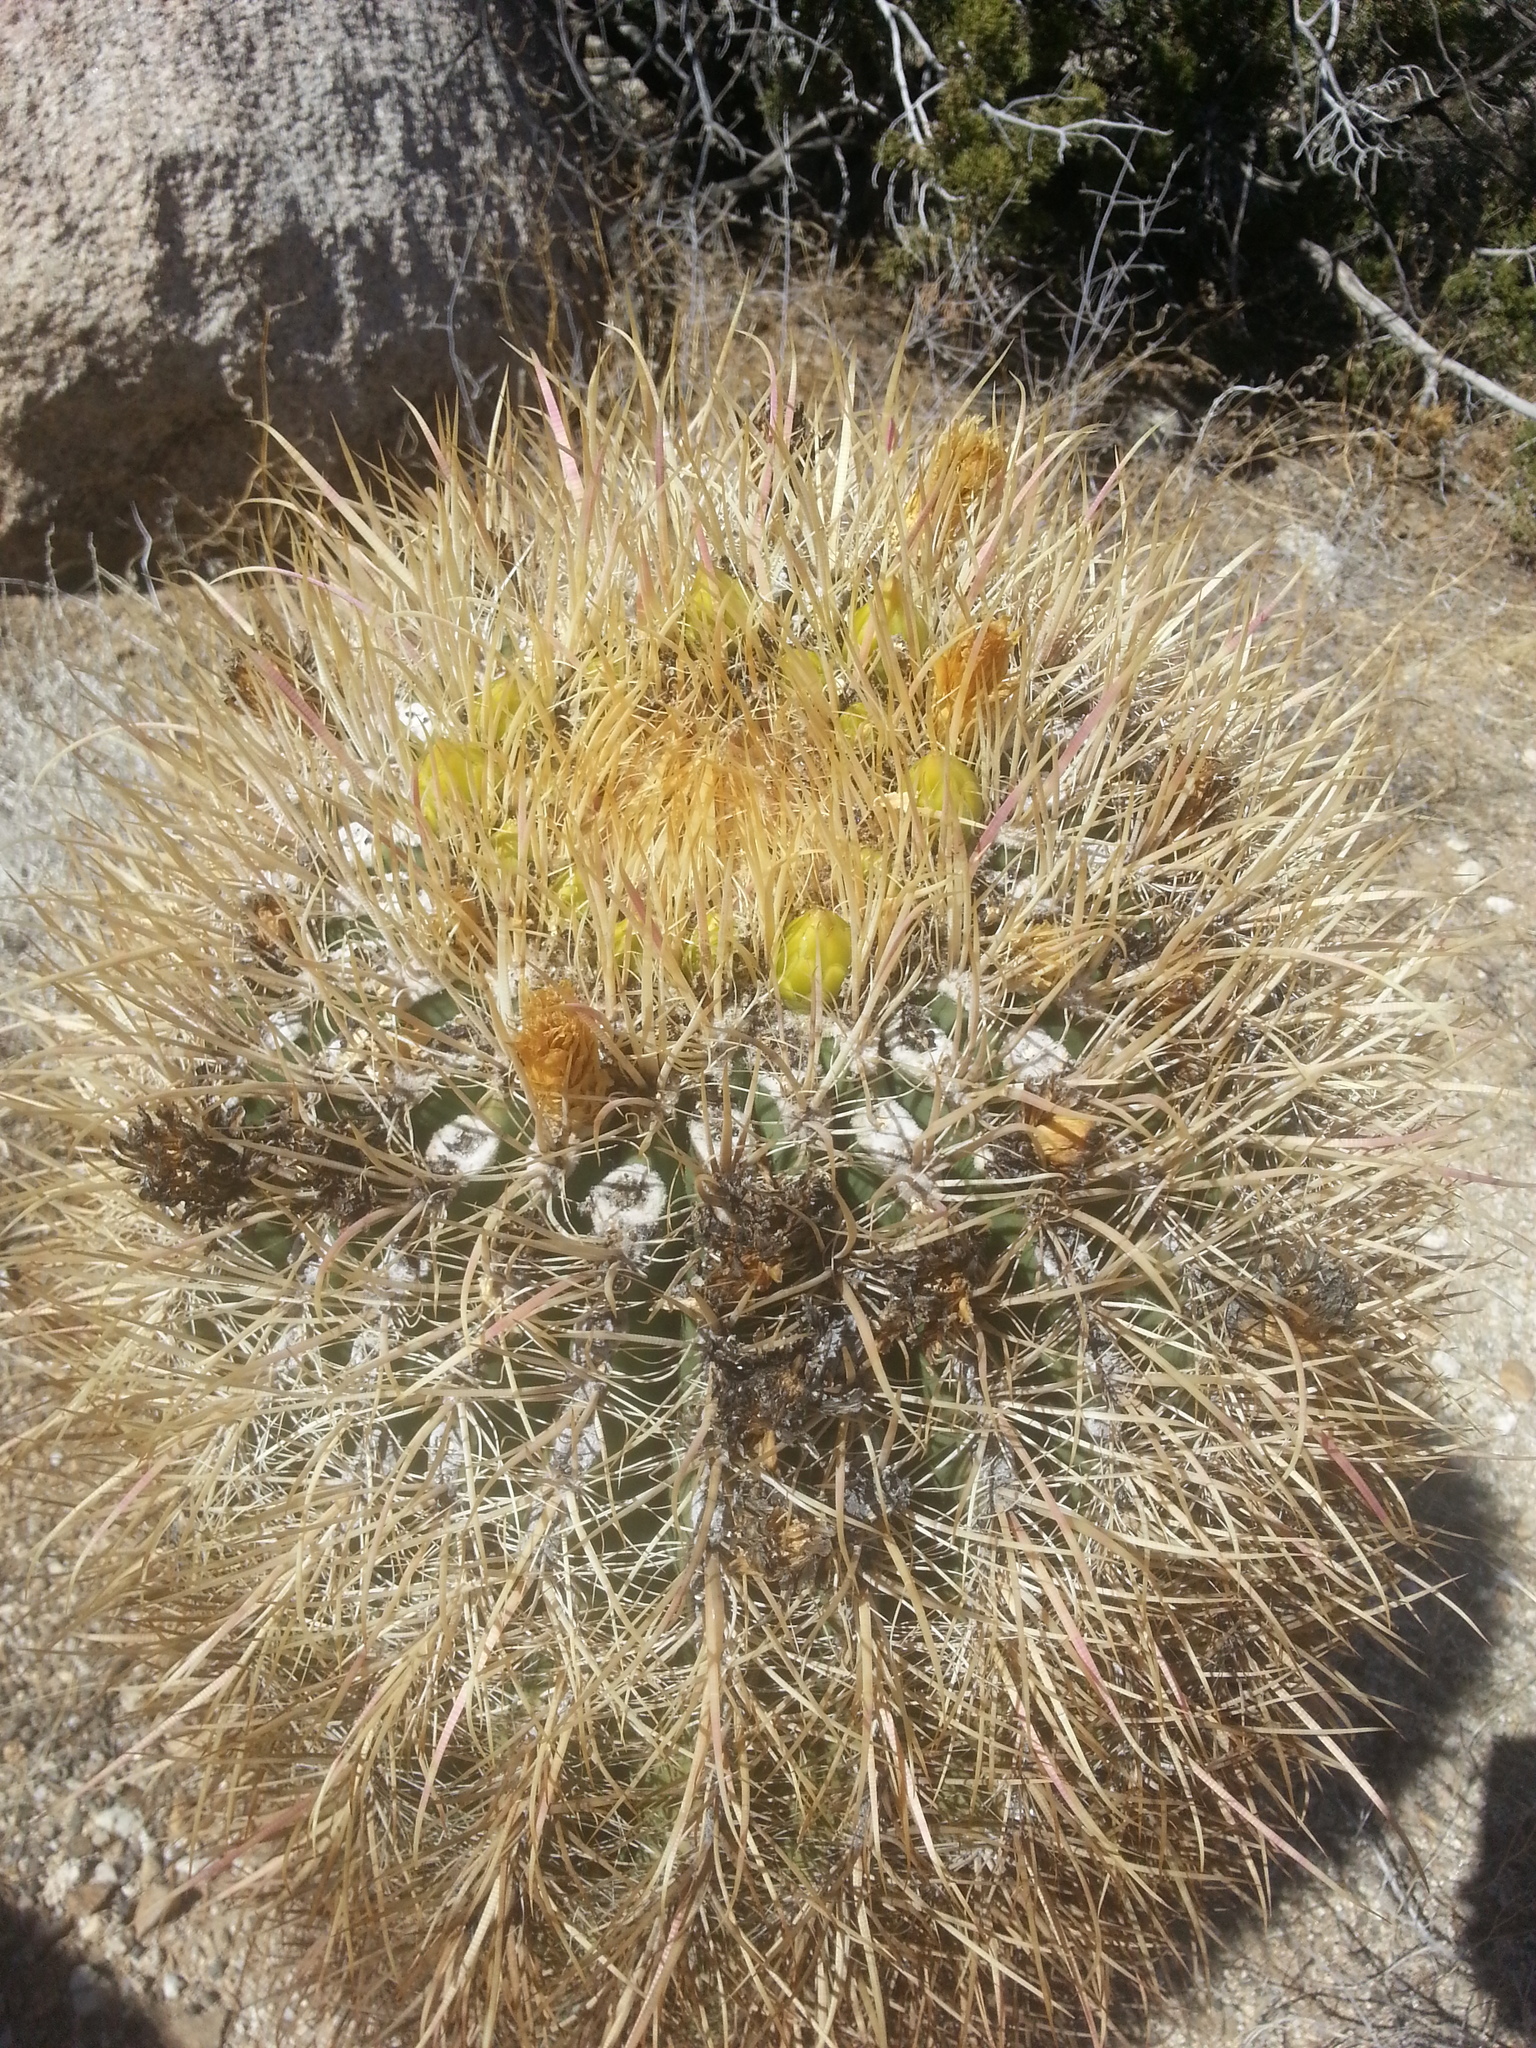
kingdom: Plantae
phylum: Tracheophyta
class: Magnoliopsida
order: Caryophyllales
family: Cactaceae
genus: Ferocactus
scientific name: Ferocactus cylindraceus
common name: California barrel cactus
